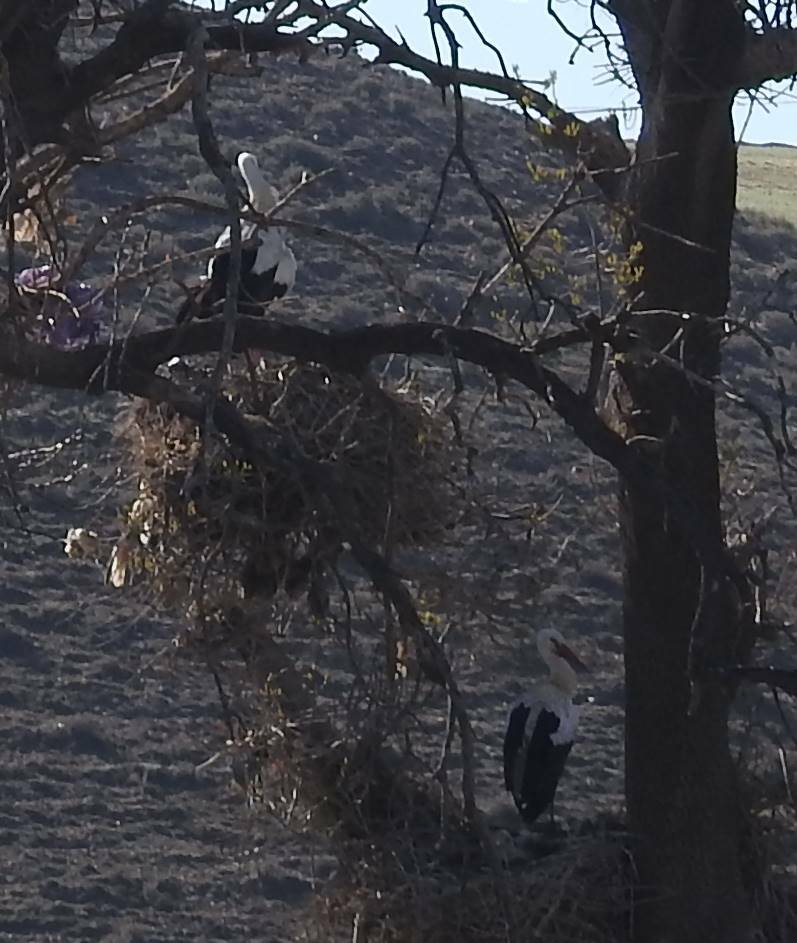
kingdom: Animalia
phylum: Chordata
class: Aves
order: Ciconiiformes
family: Ciconiidae
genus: Ciconia
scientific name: Ciconia ciconia
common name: White stork
